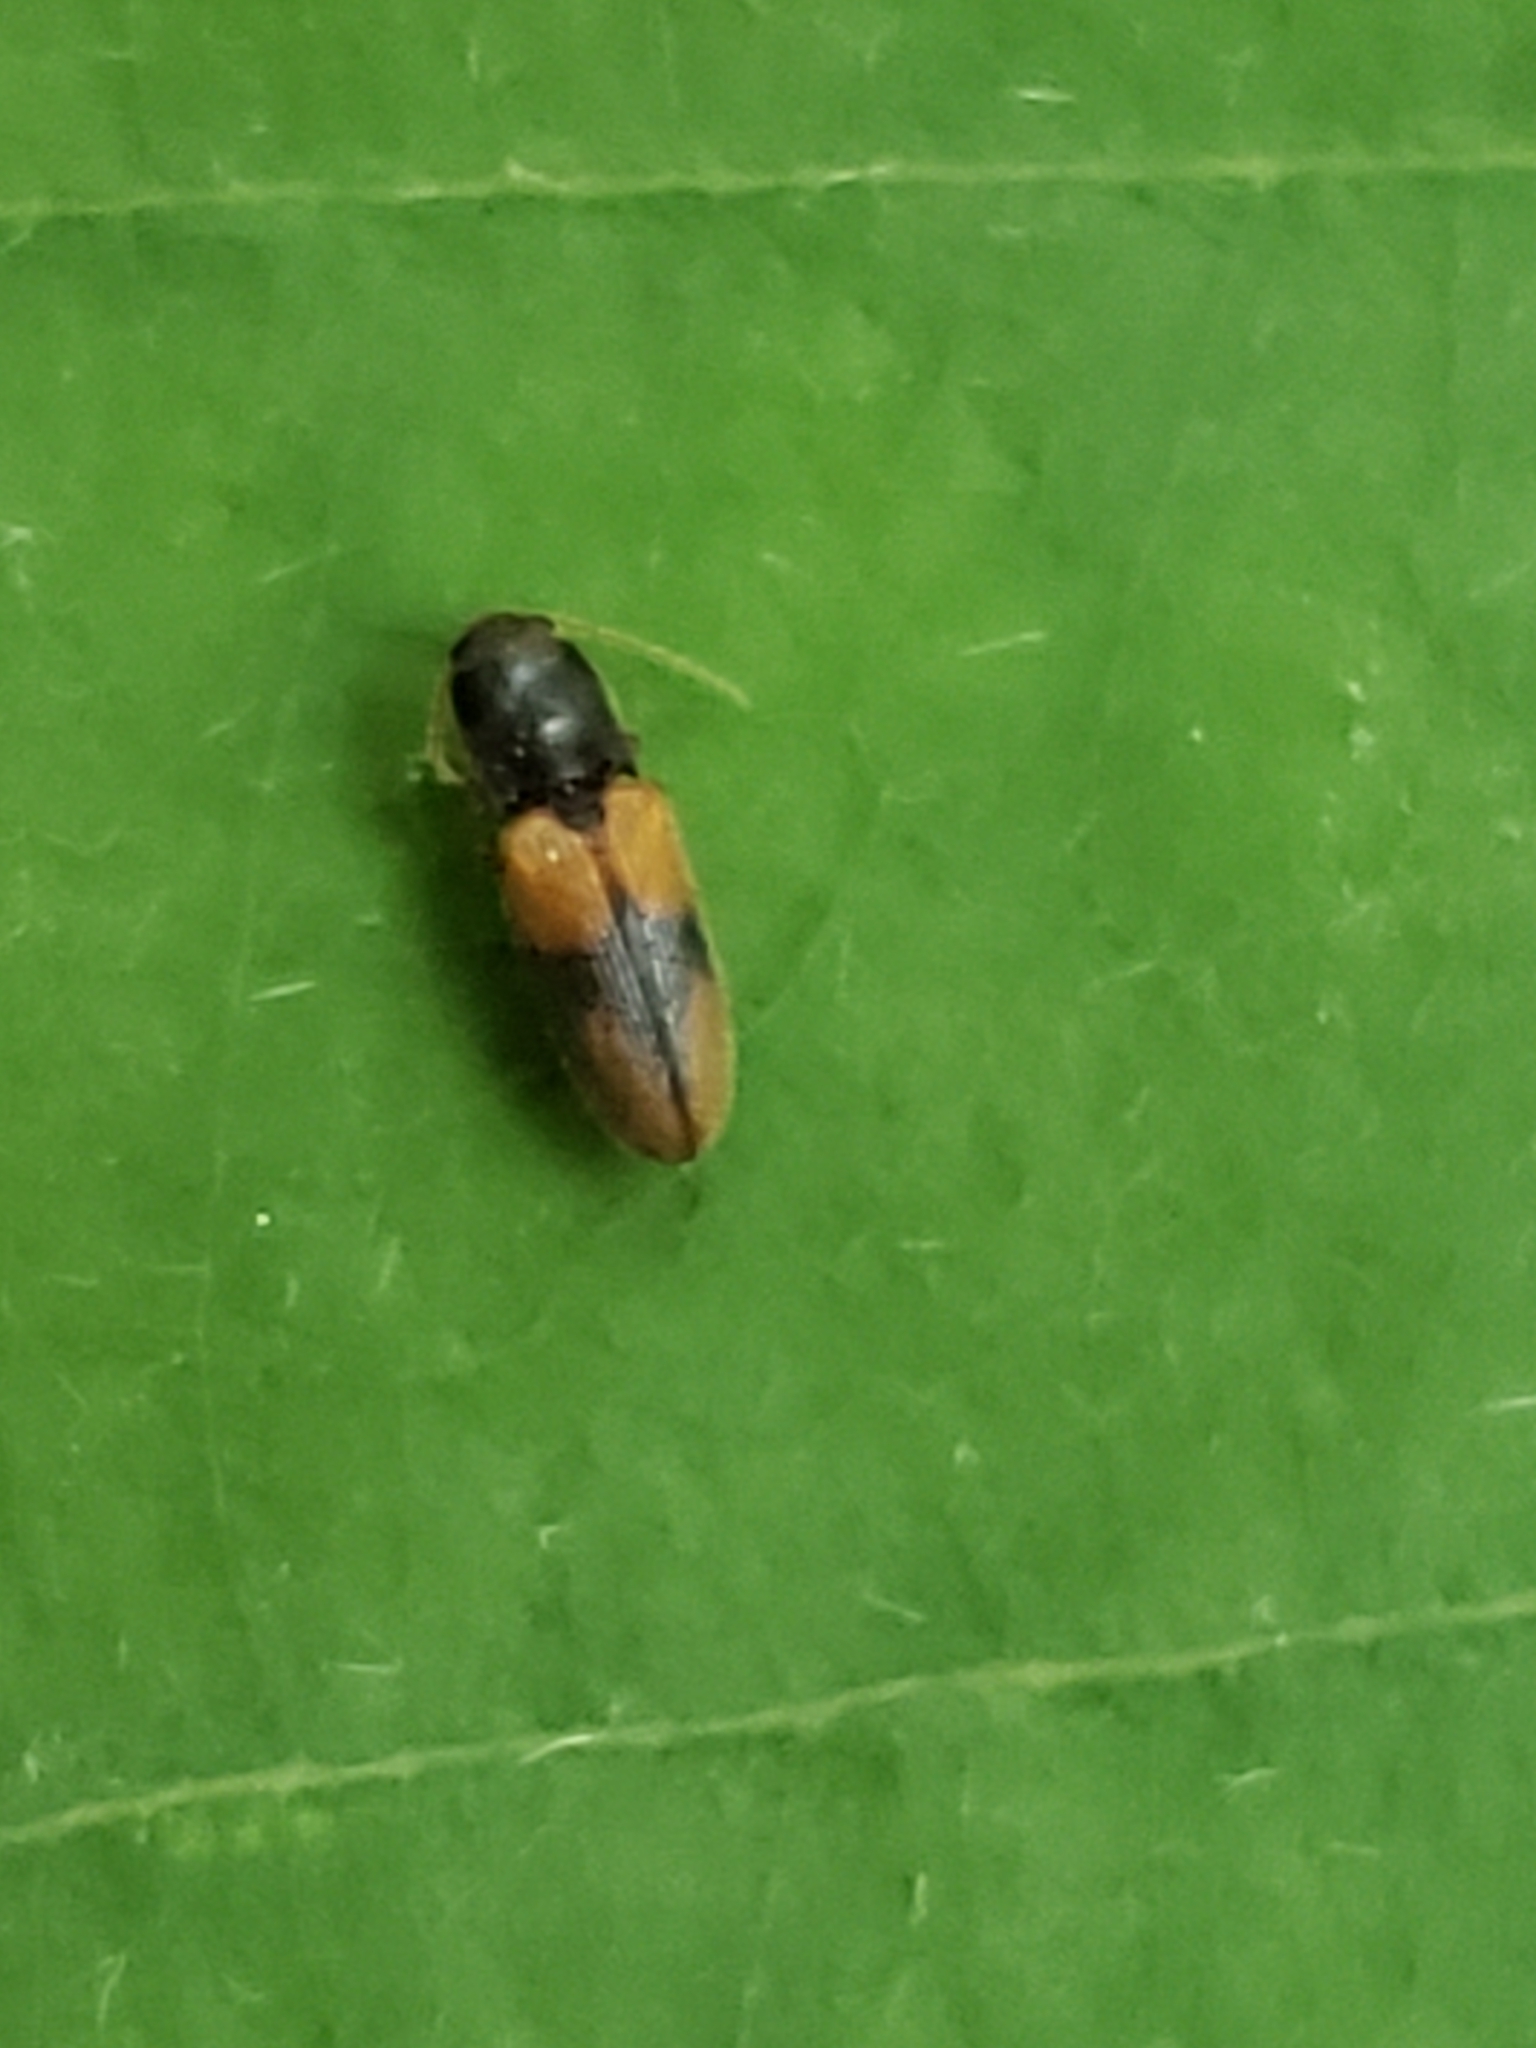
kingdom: Animalia
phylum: Arthropoda
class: Insecta
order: Coleoptera
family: Elateridae
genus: Horistonotus
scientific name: Horistonotus curiatus
